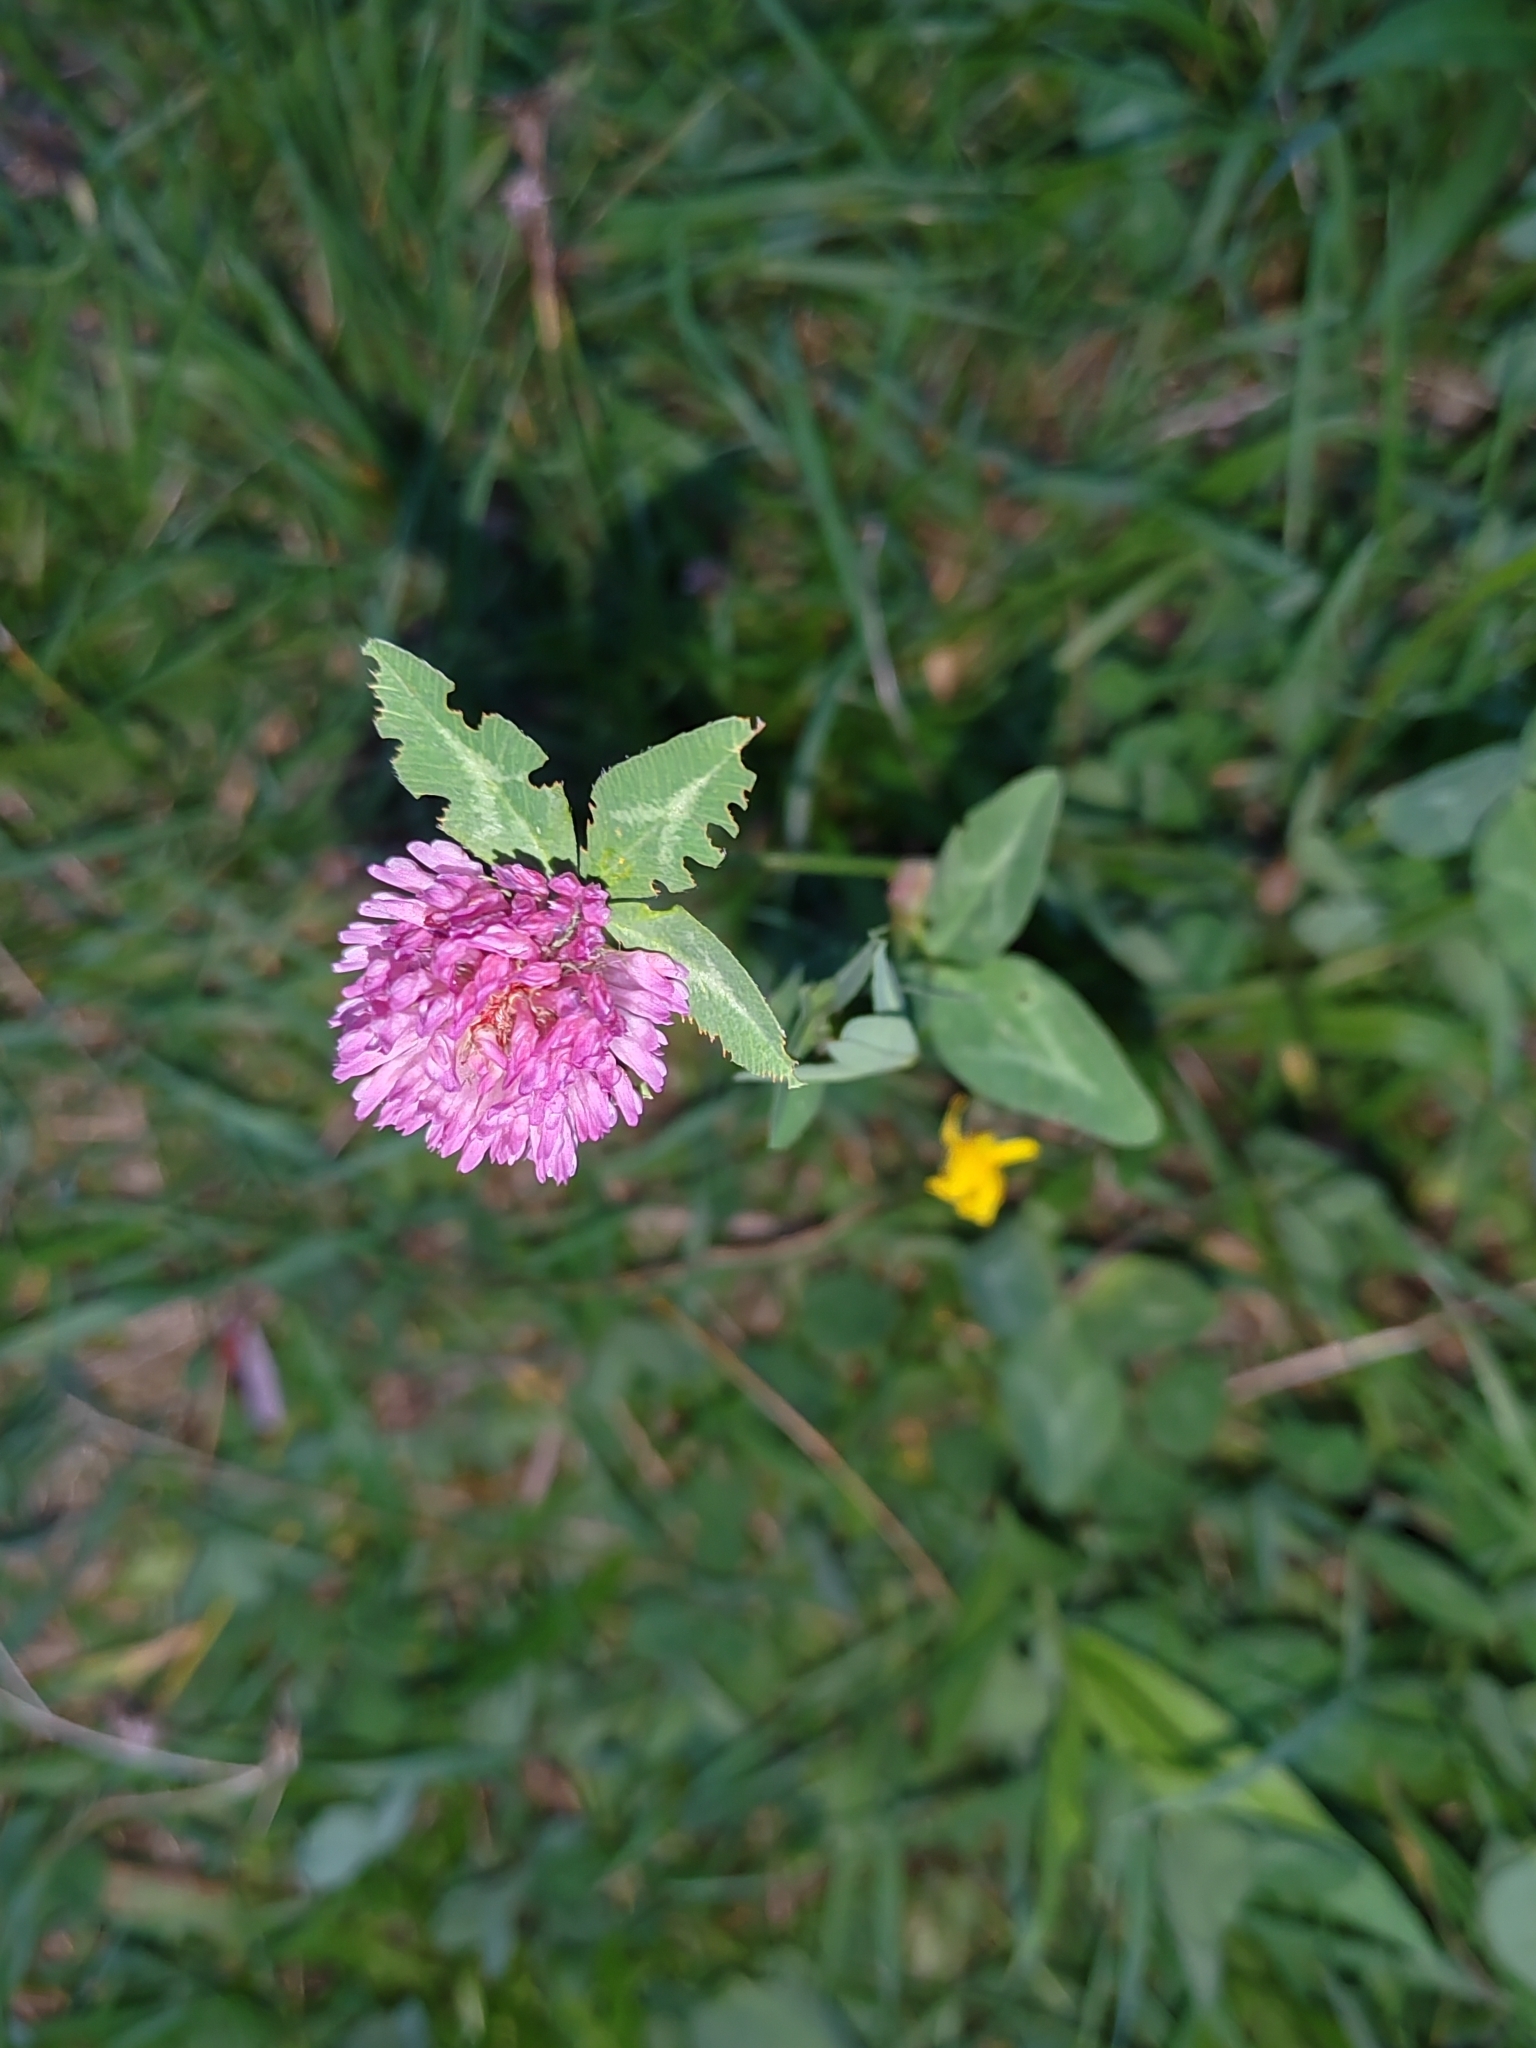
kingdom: Plantae
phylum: Tracheophyta
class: Magnoliopsida
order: Fabales
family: Fabaceae
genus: Trifolium
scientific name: Trifolium pratense
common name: Red clover
